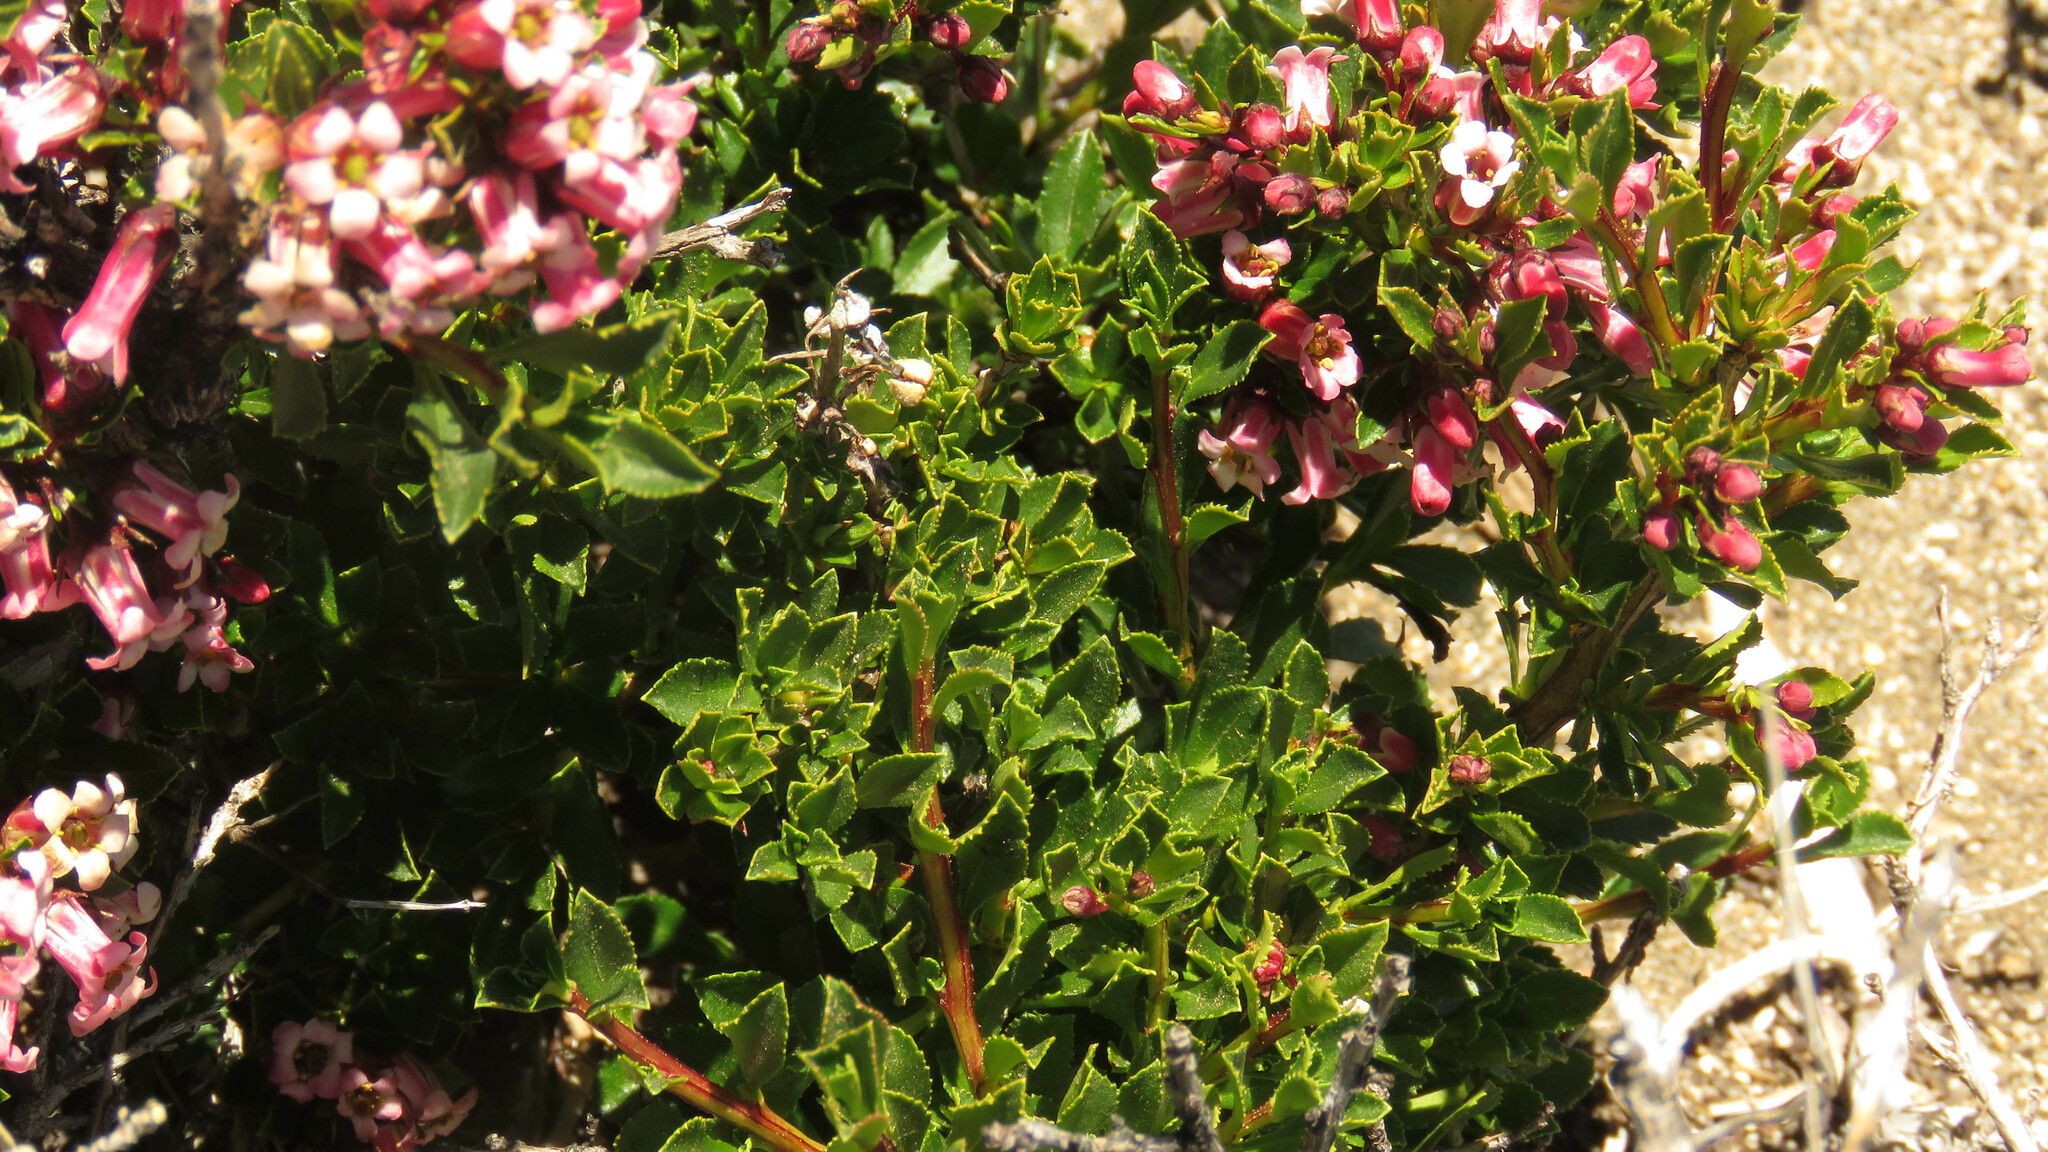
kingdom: Plantae
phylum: Tracheophyta
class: Magnoliopsida
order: Escalloniales
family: Escalloniaceae
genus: Escallonia
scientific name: Escallonia alpina
